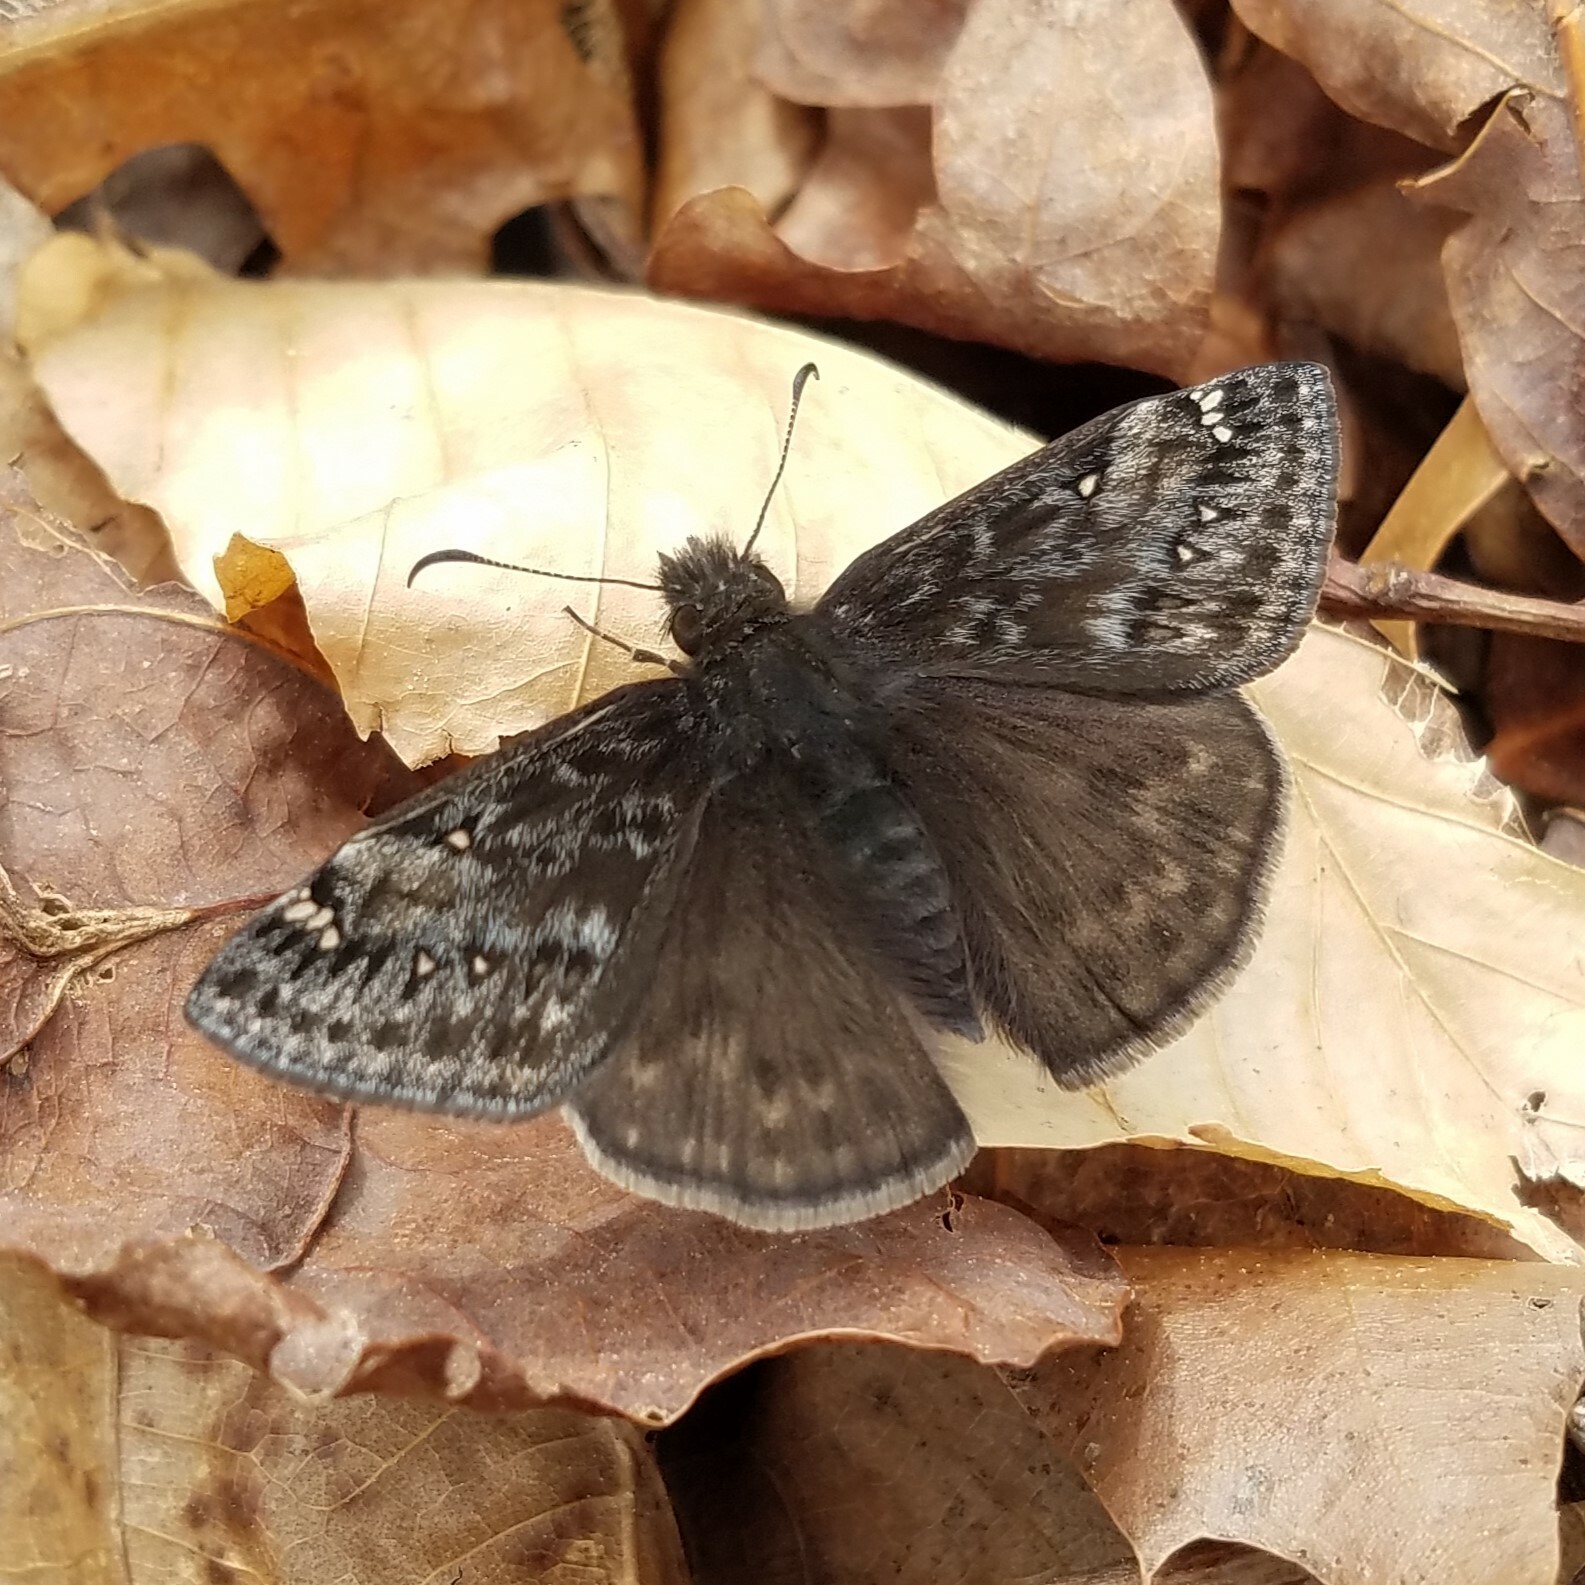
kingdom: Animalia
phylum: Arthropoda
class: Insecta
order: Lepidoptera
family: Hesperiidae
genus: Erynnis
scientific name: Erynnis juvenalis
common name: Juvenal's duskywing
